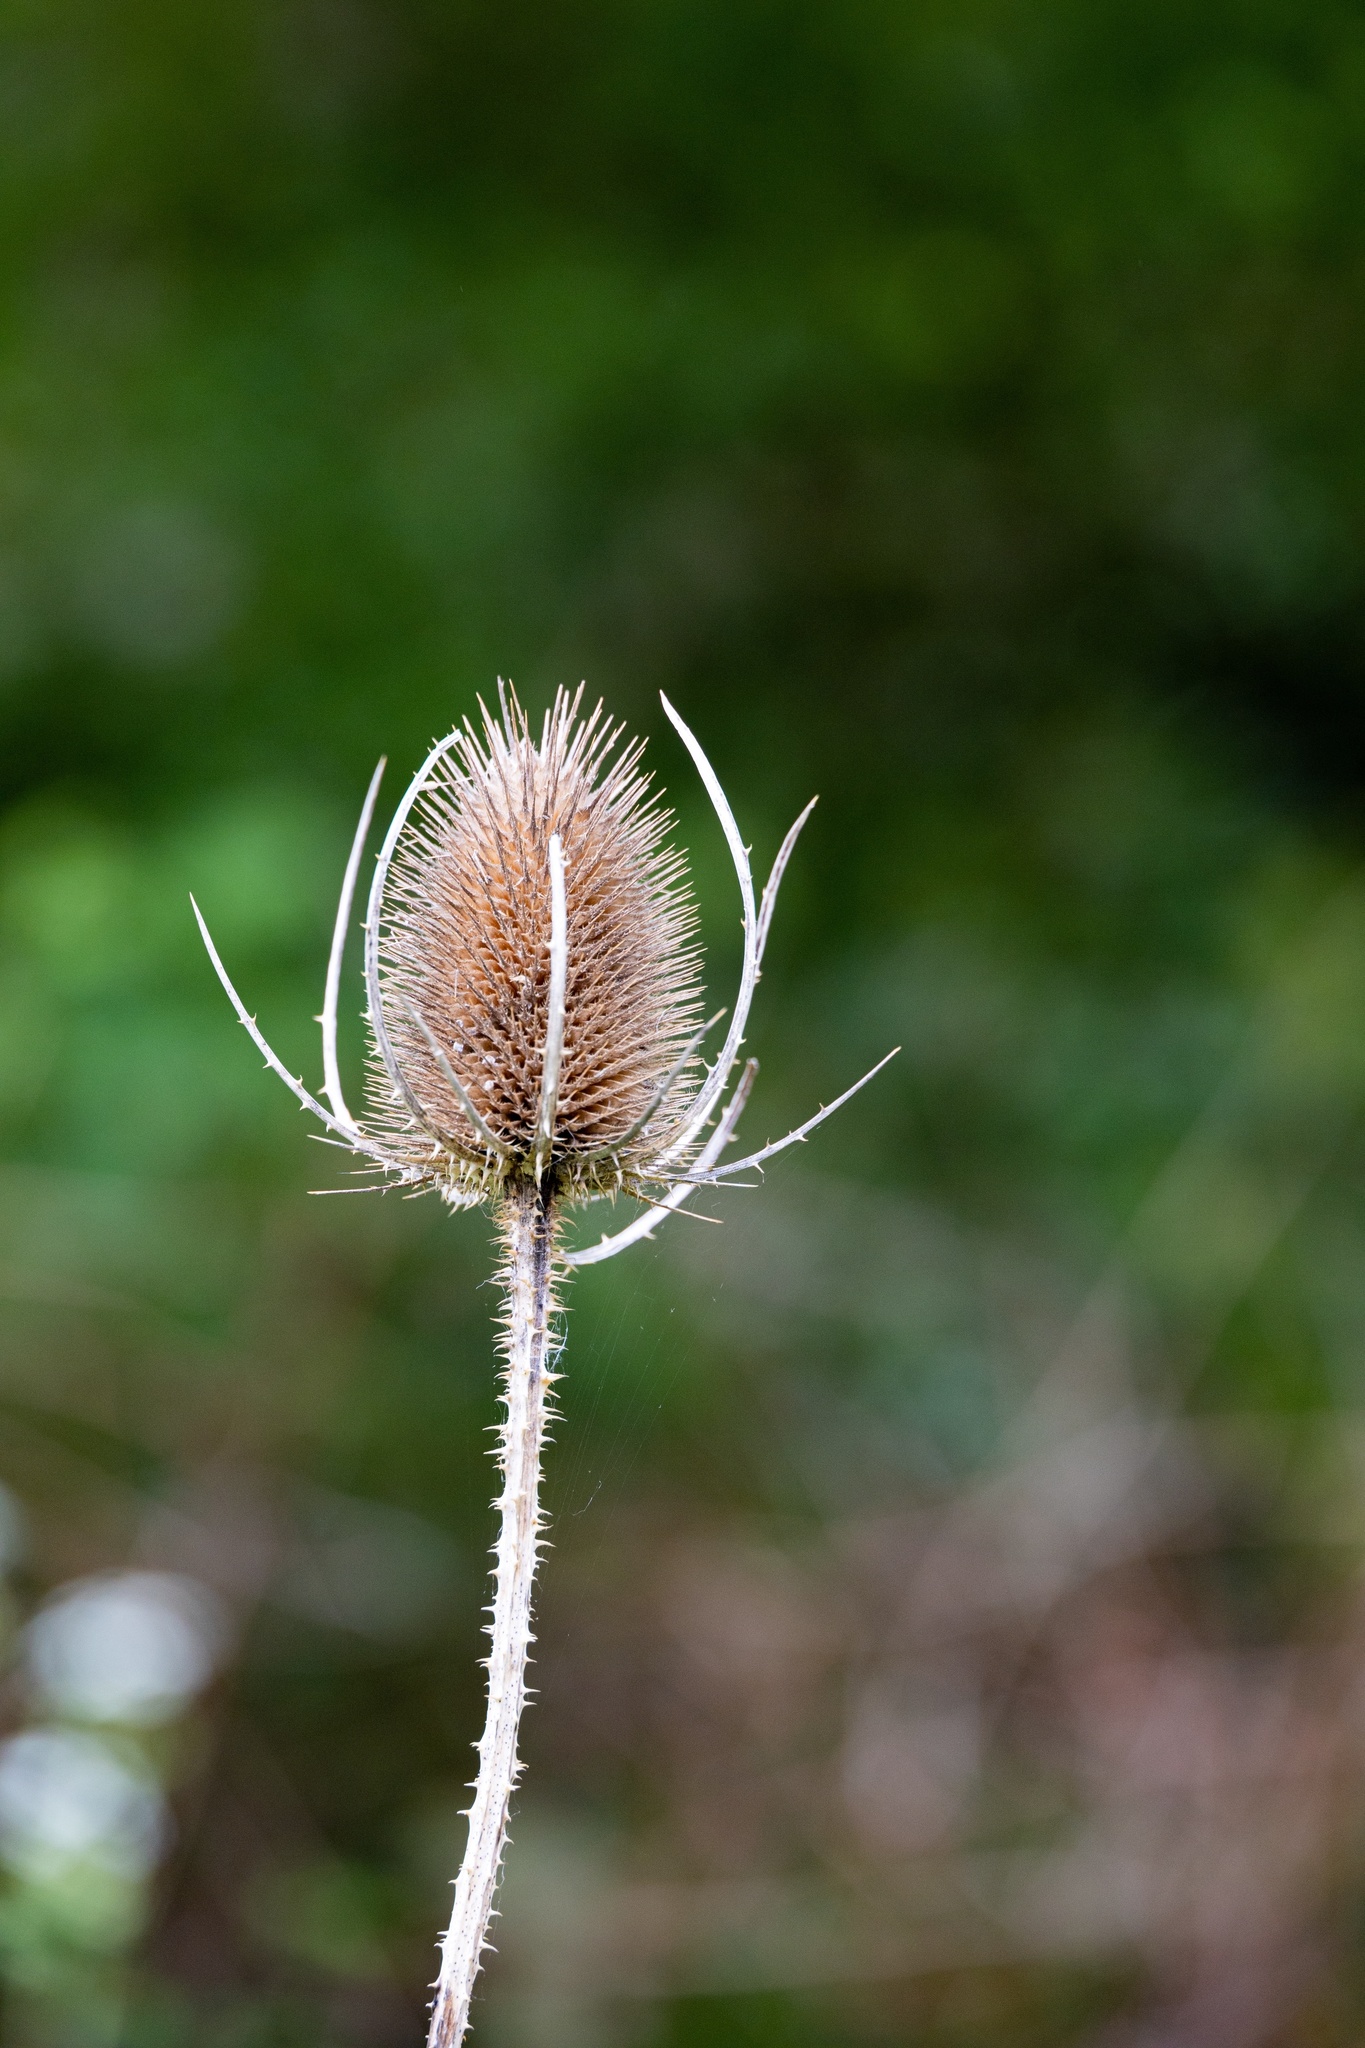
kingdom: Plantae
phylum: Tracheophyta
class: Magnoliopsida
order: Dipsacales
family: Caprifoliaceae
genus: Dipsacus
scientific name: Dipsacus fullonum
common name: Teasel
